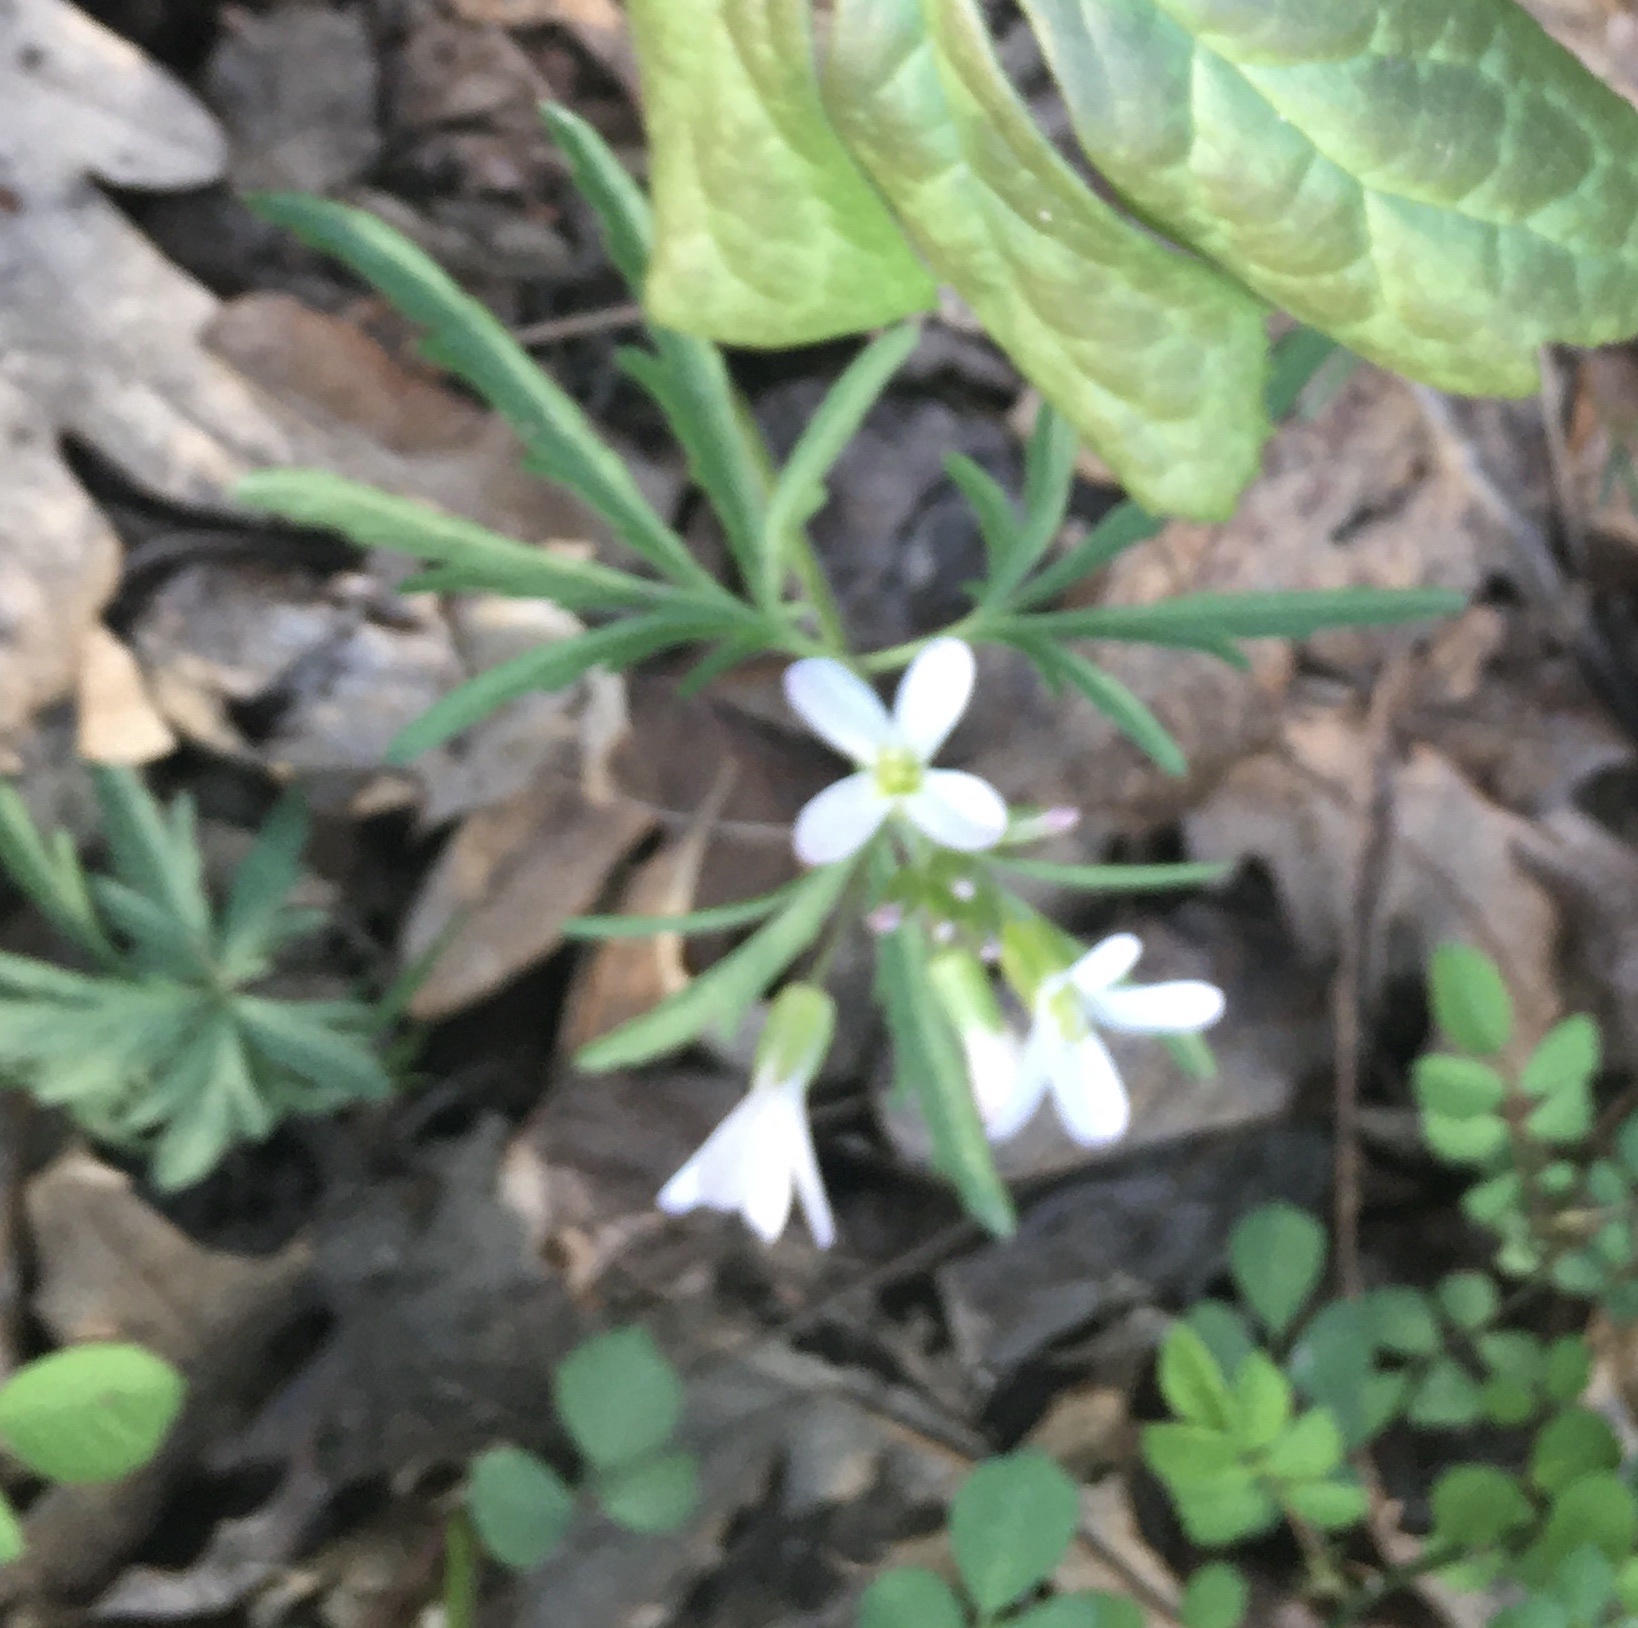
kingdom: Plantae
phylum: Tracheophyta
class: Magnoliopsida
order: Brassicales
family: Brassicaceae
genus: Cardamine
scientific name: Cardamine concatenata
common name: Cut-leaf toothcup
